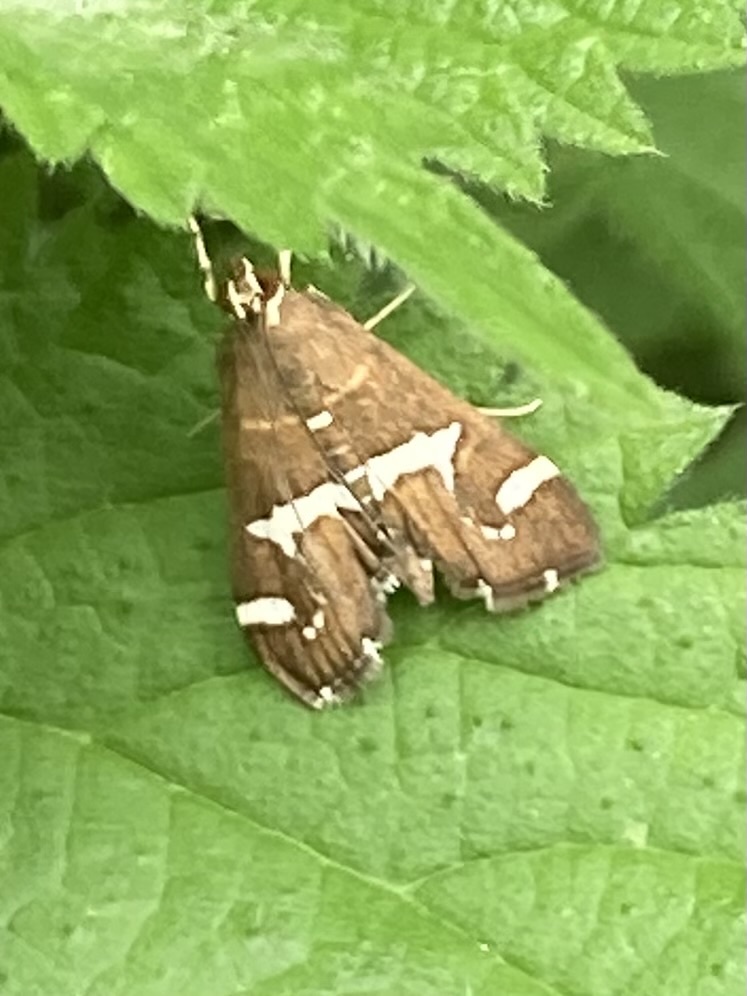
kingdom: Animalia
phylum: Arthropoda
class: Insecta
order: Lepidoptera
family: Crambidae
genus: Spoladea
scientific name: Spoladea recurvalis
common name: Beet webworm moth
